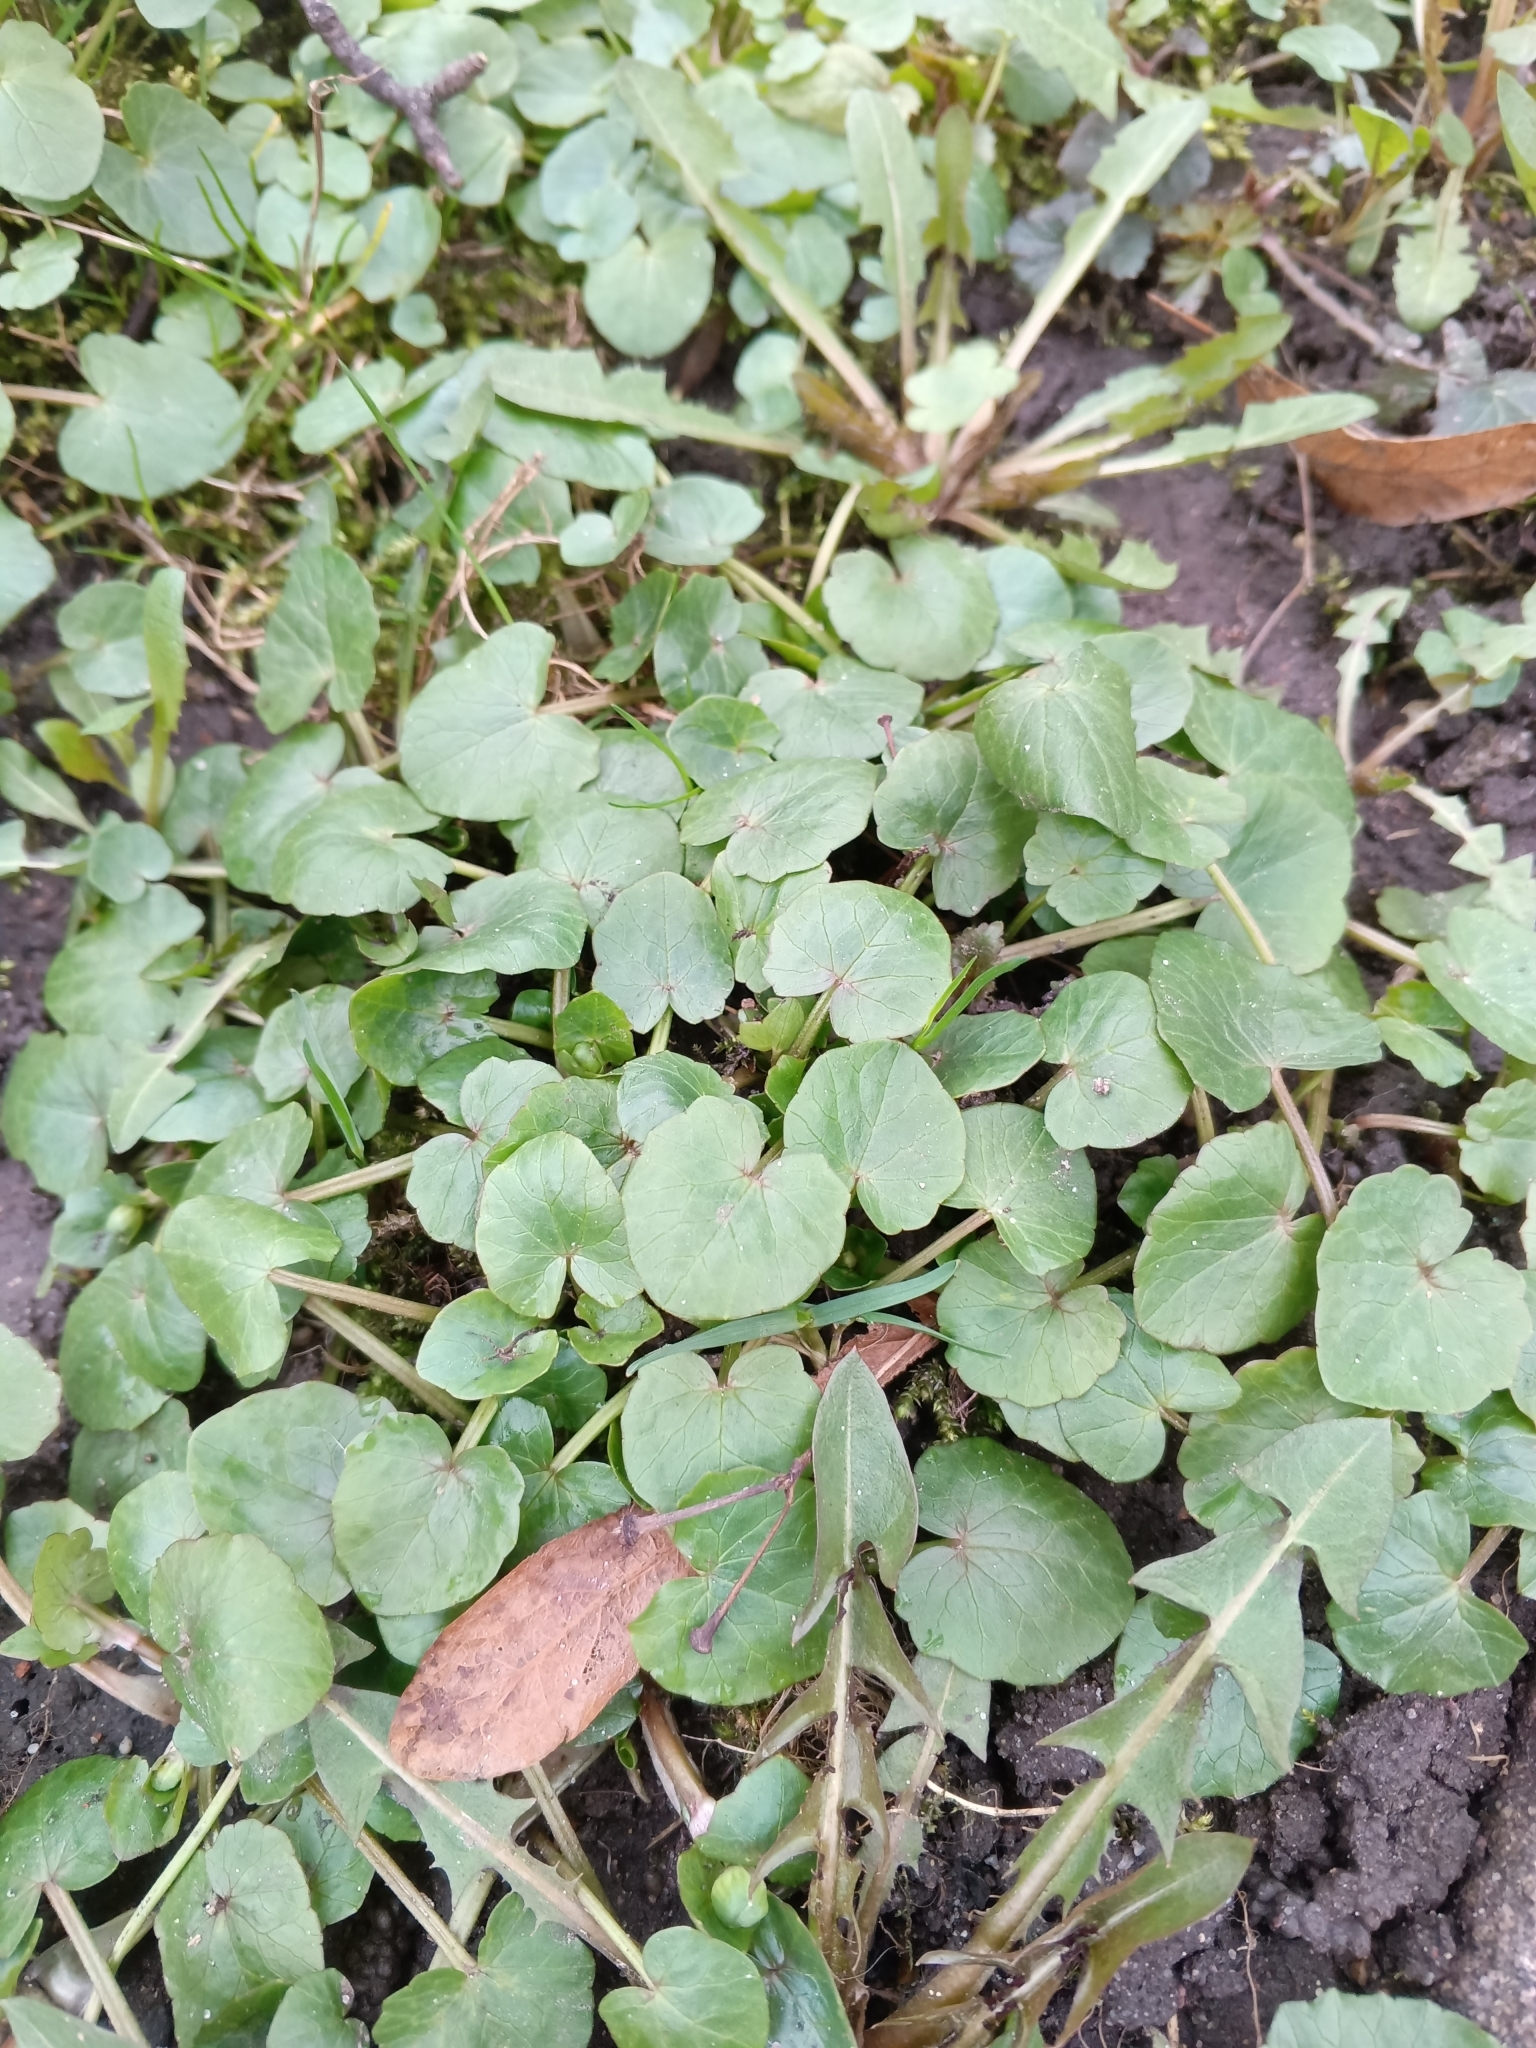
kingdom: Plantae
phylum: Tracheophyta
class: Magnoliopsida
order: Ranunculales
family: Ranunculaceae
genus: Ficaria
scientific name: Ficaria verna
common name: Lesser celandine
